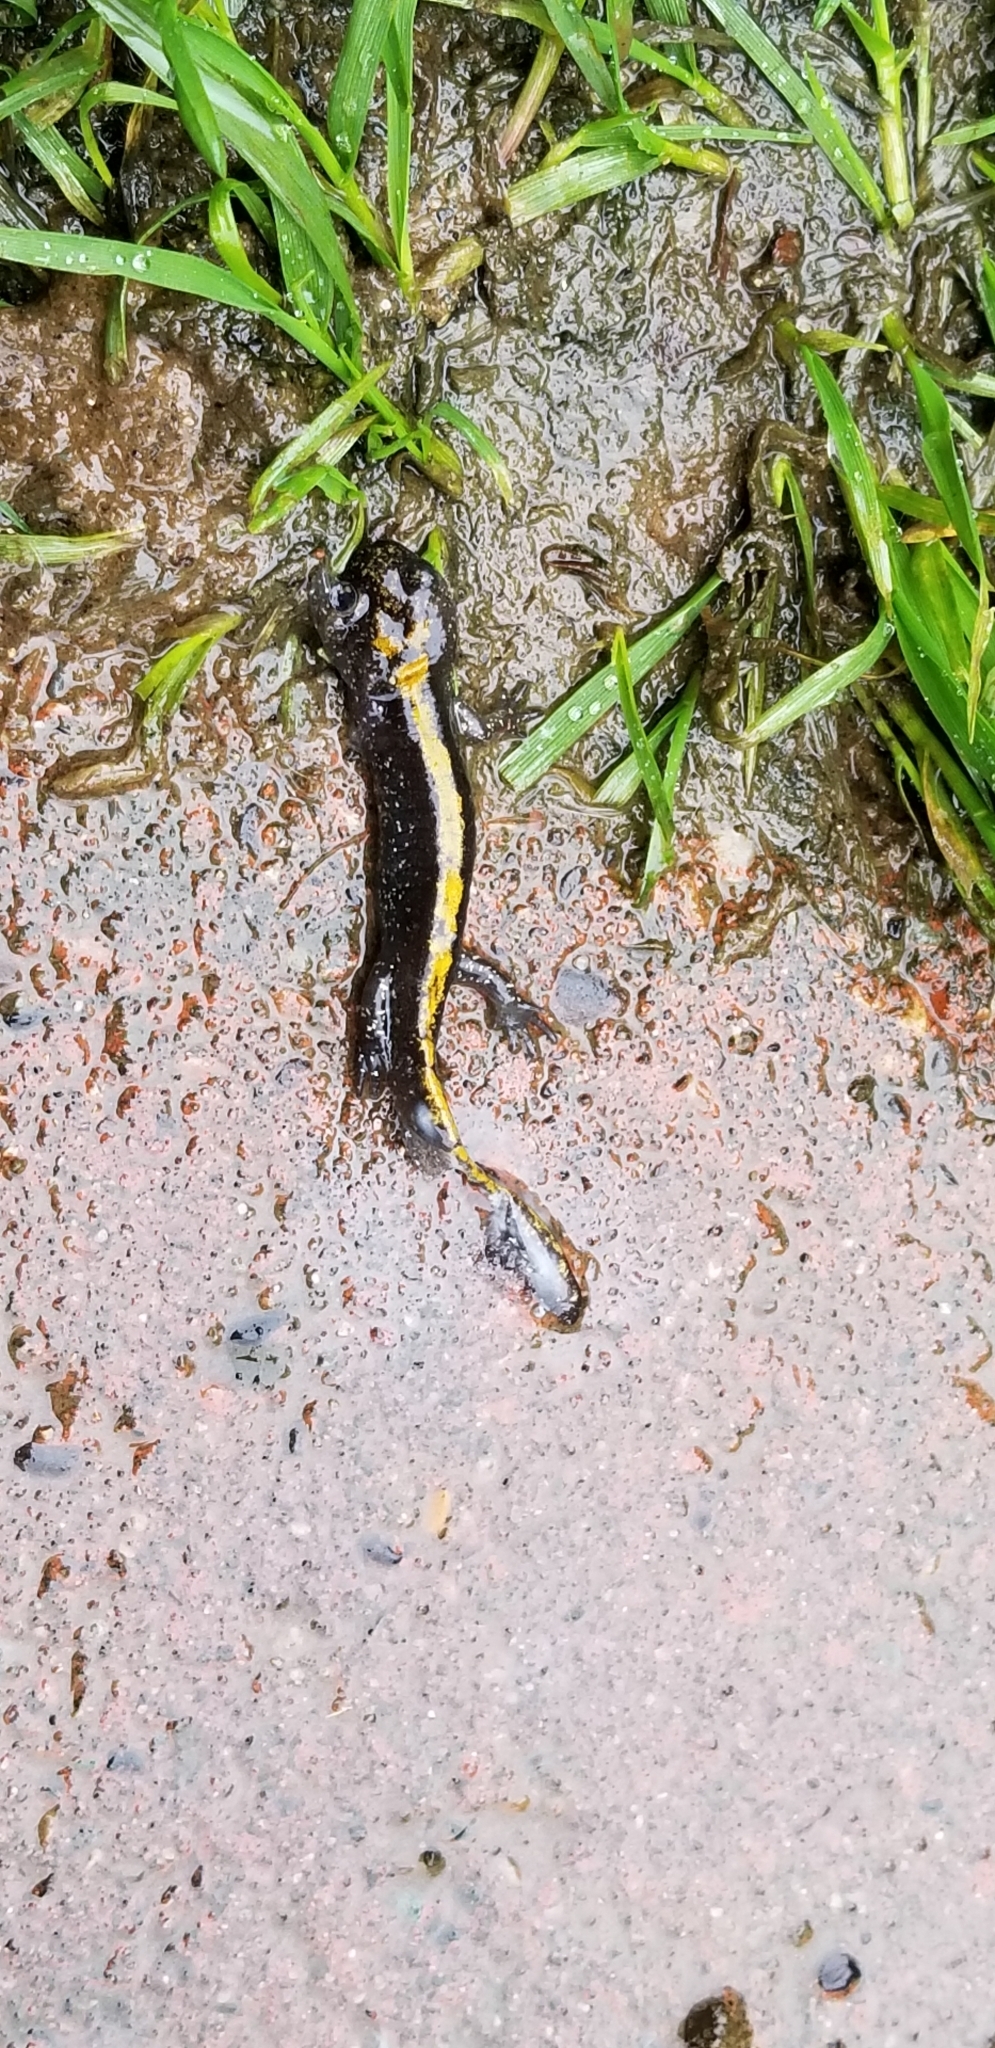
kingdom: Animalia
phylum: Chordata
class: Amphibia
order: Caudata
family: Ambystomatidae
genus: Ambystoma
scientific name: Ambystoma macrodactylum
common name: Long-toed salamander
